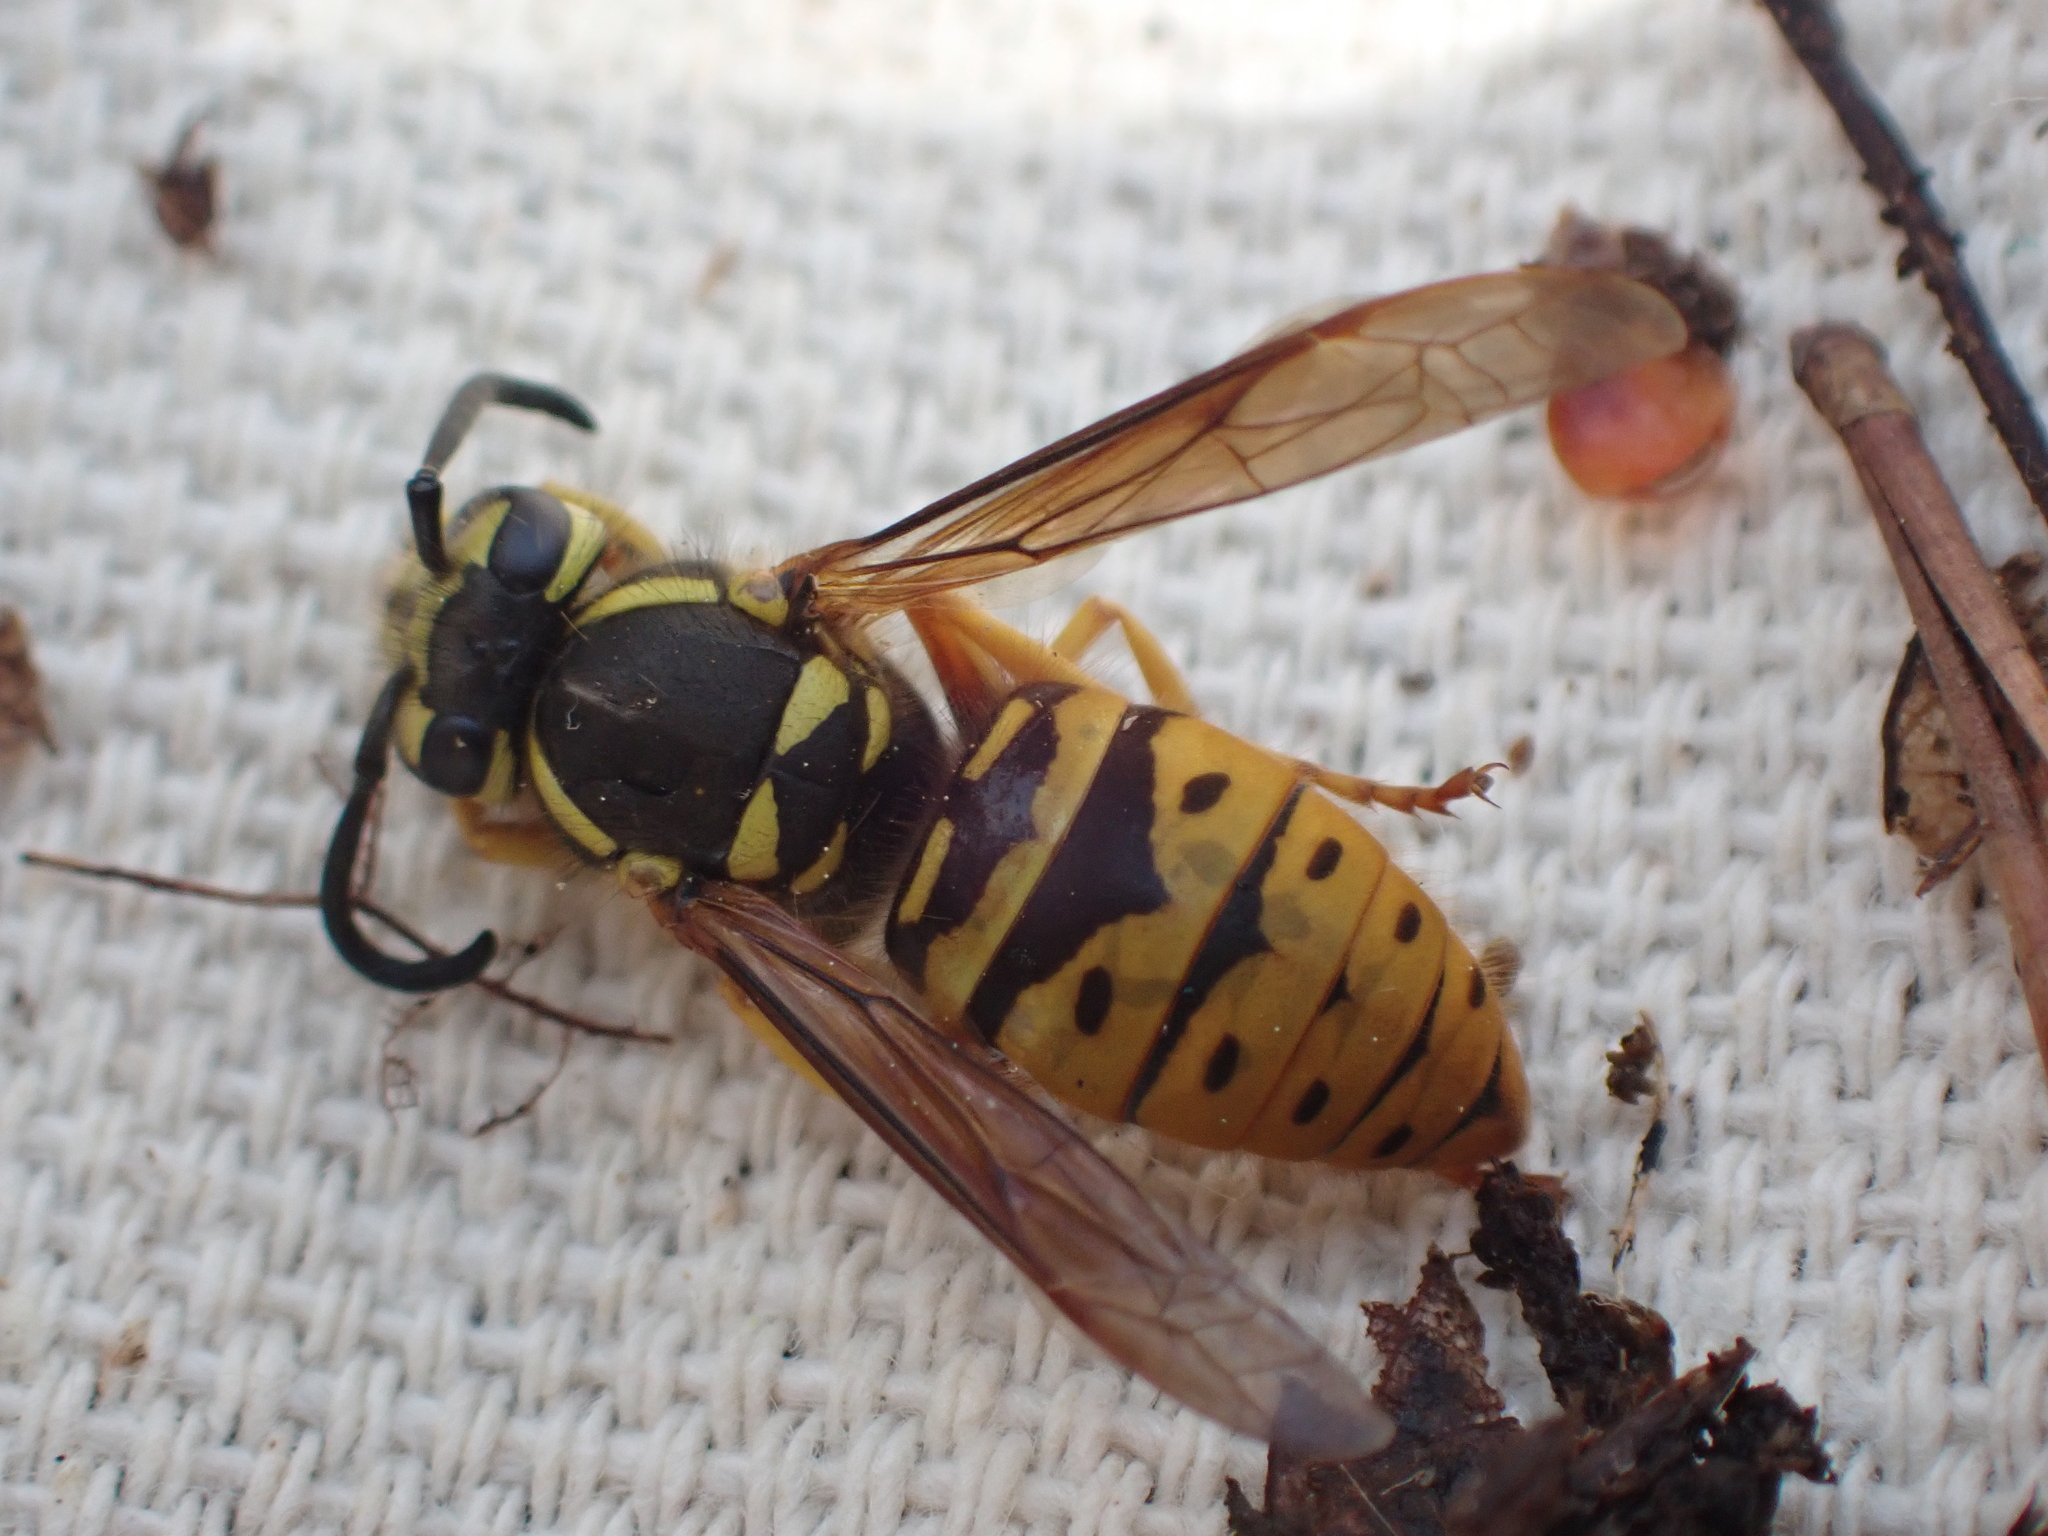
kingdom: Animalia
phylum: Arthropoda
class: Insecta
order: Hymenoptera
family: Vespidae
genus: Vespula
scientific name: Vespula maculifrons
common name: Eastern yellowjacket
